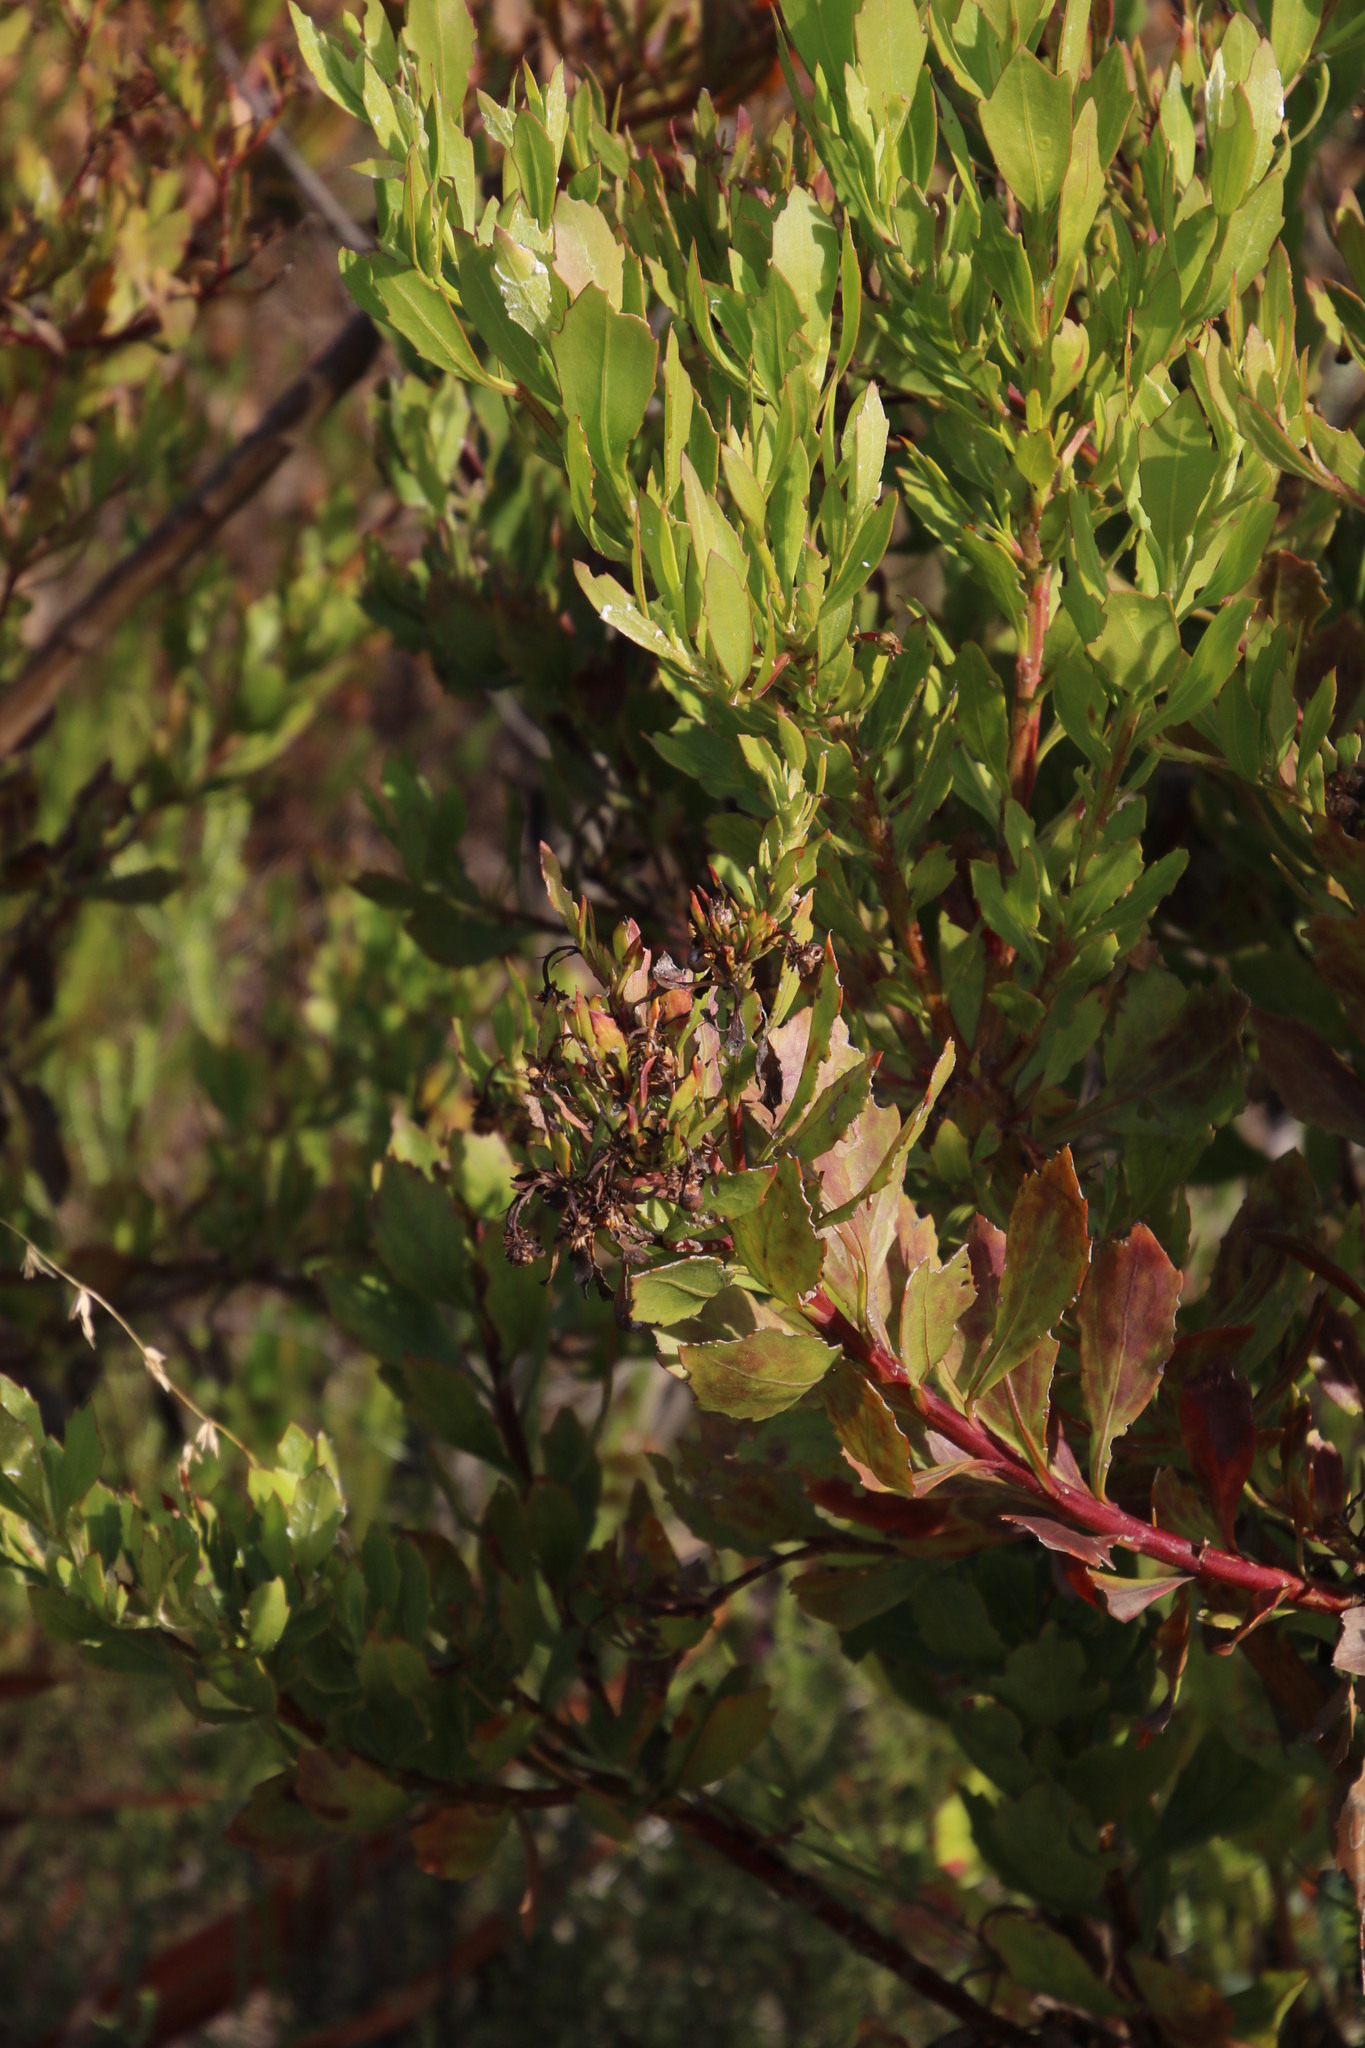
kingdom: Plantae
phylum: Tracheophyta
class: Magnoliopsida
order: Asterales
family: Asteraceae
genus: Osteospermum
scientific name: Osteospermum moniliferum
